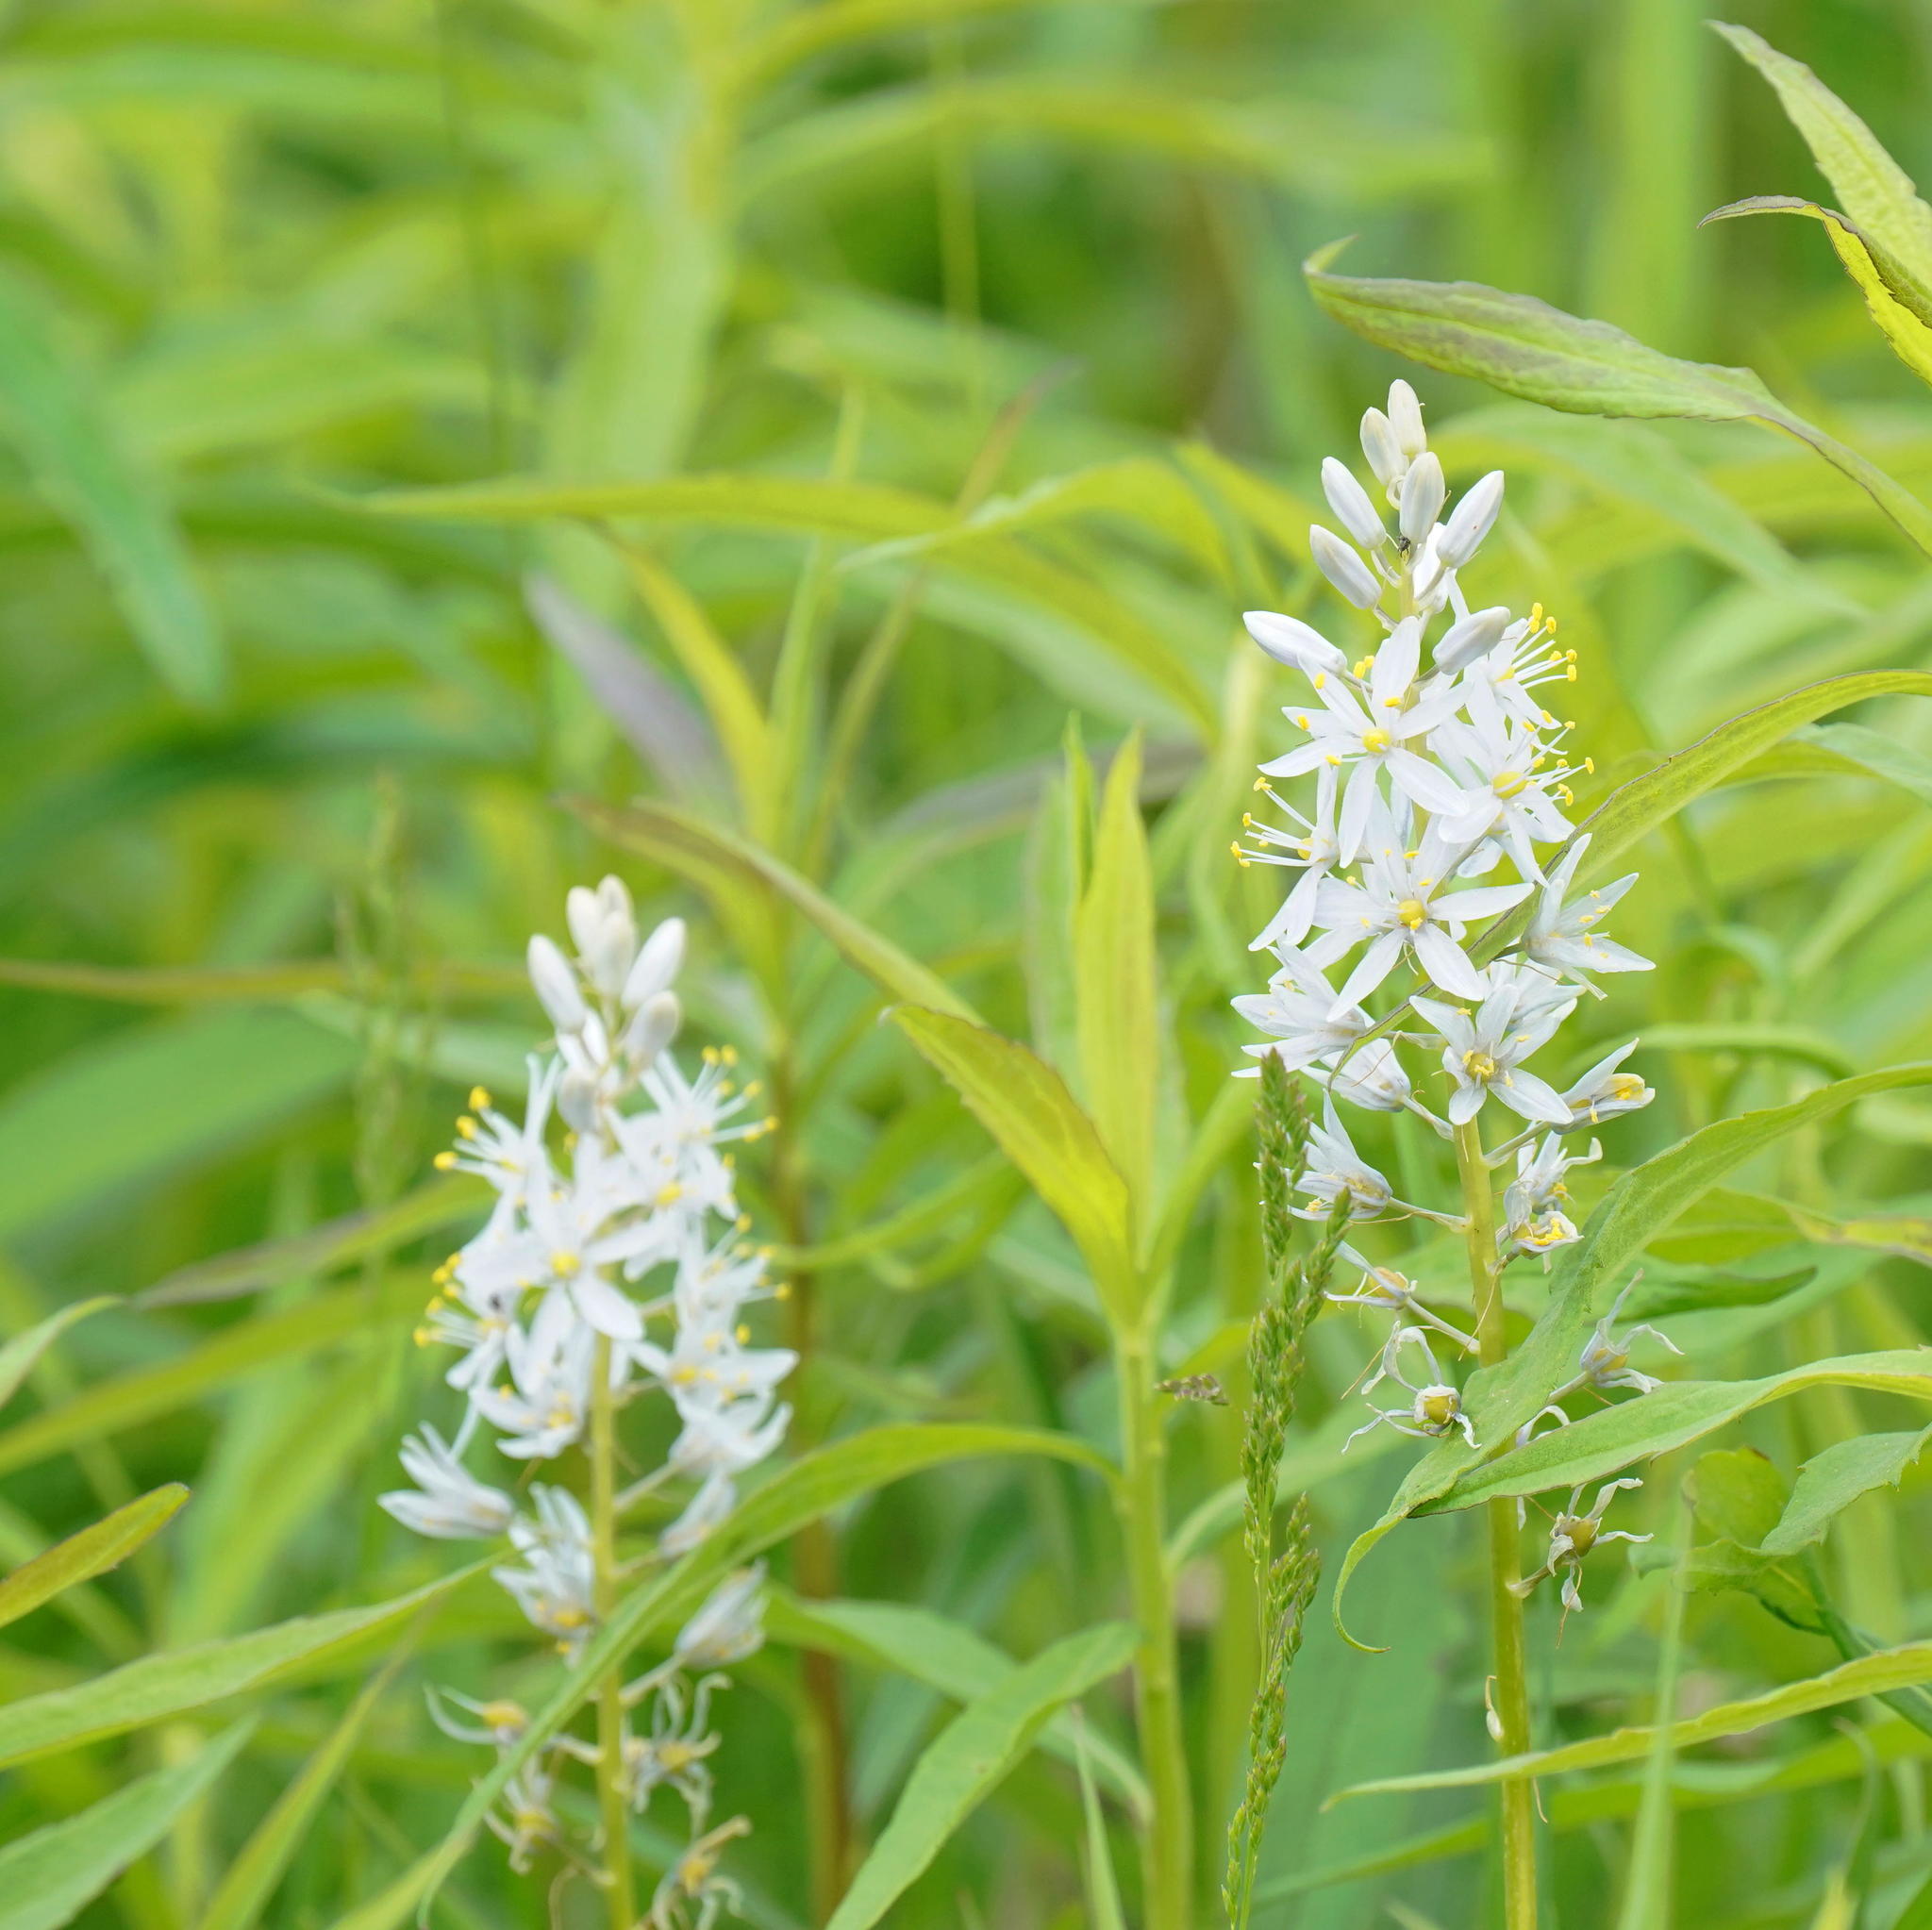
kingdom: Plantae
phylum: Tracheophyta
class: Liliopsida
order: Asparagales
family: Asparagaceae
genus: Camassia
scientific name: Camassia scilloides
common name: Wild hyacinth
